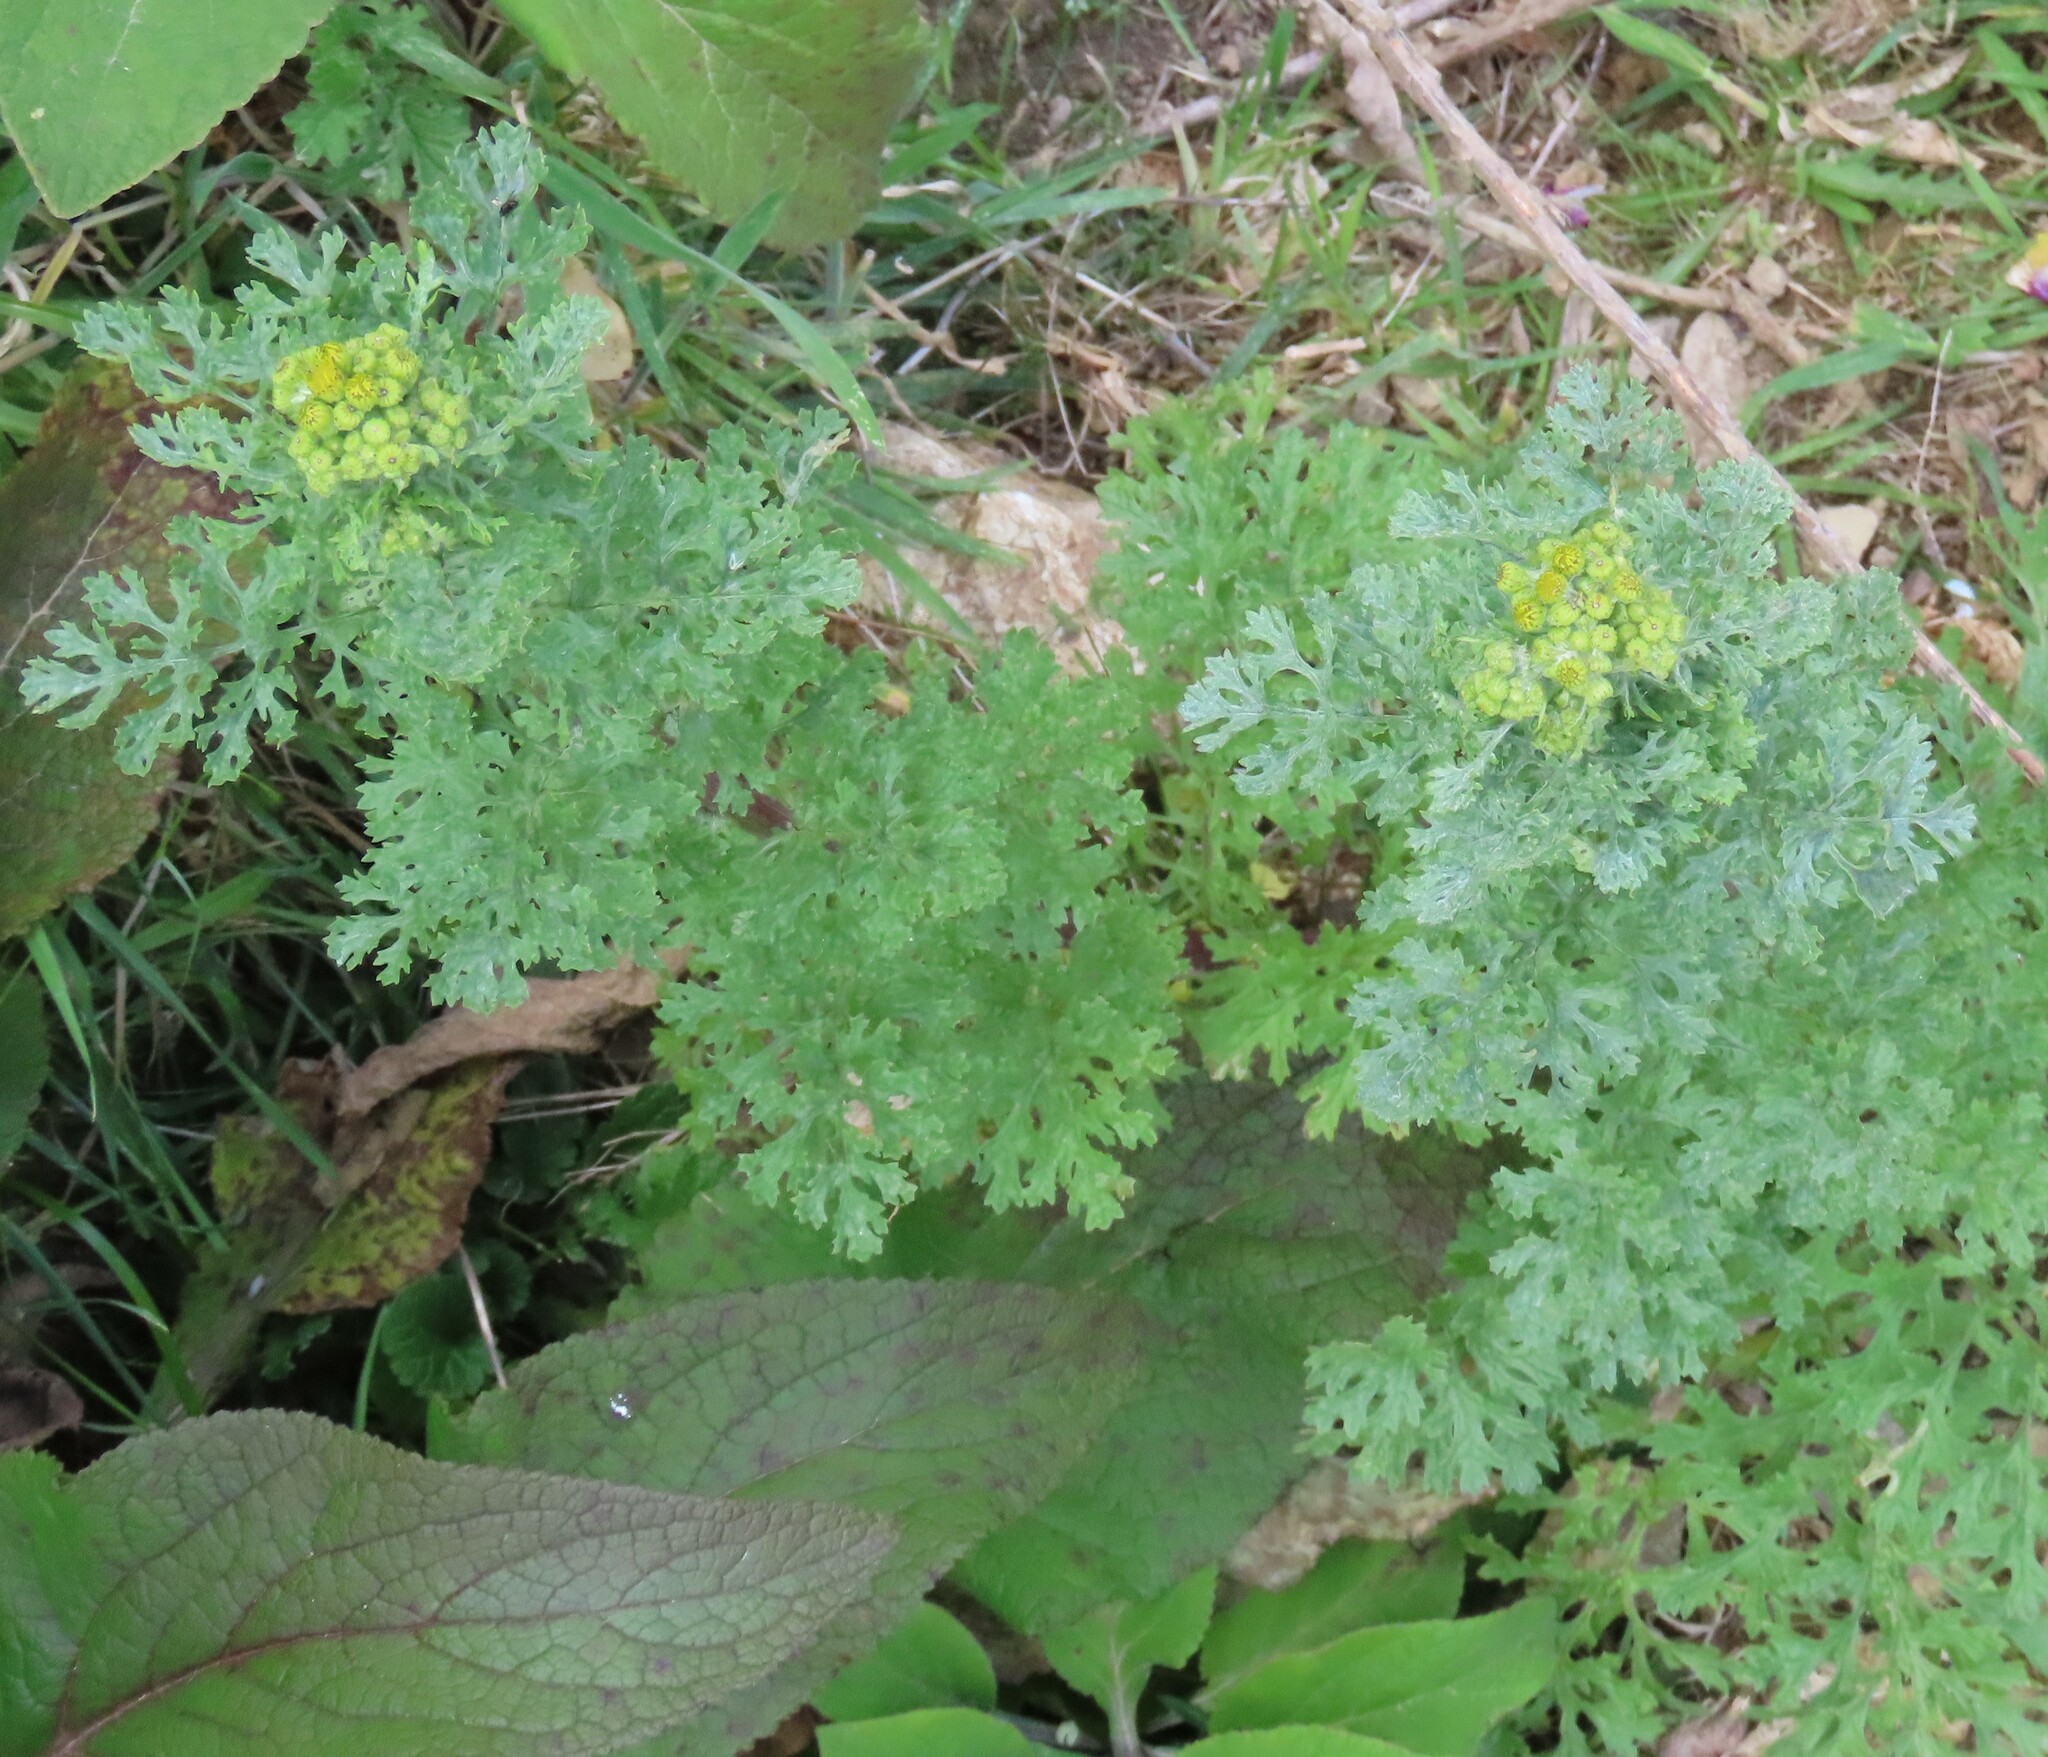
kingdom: Plantae
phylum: Tracheophyta
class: Magnoliopsida
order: Asterales
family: Asteraceae
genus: Jacobaea
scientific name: Jacobaea vulgaris
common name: Stinking willie
